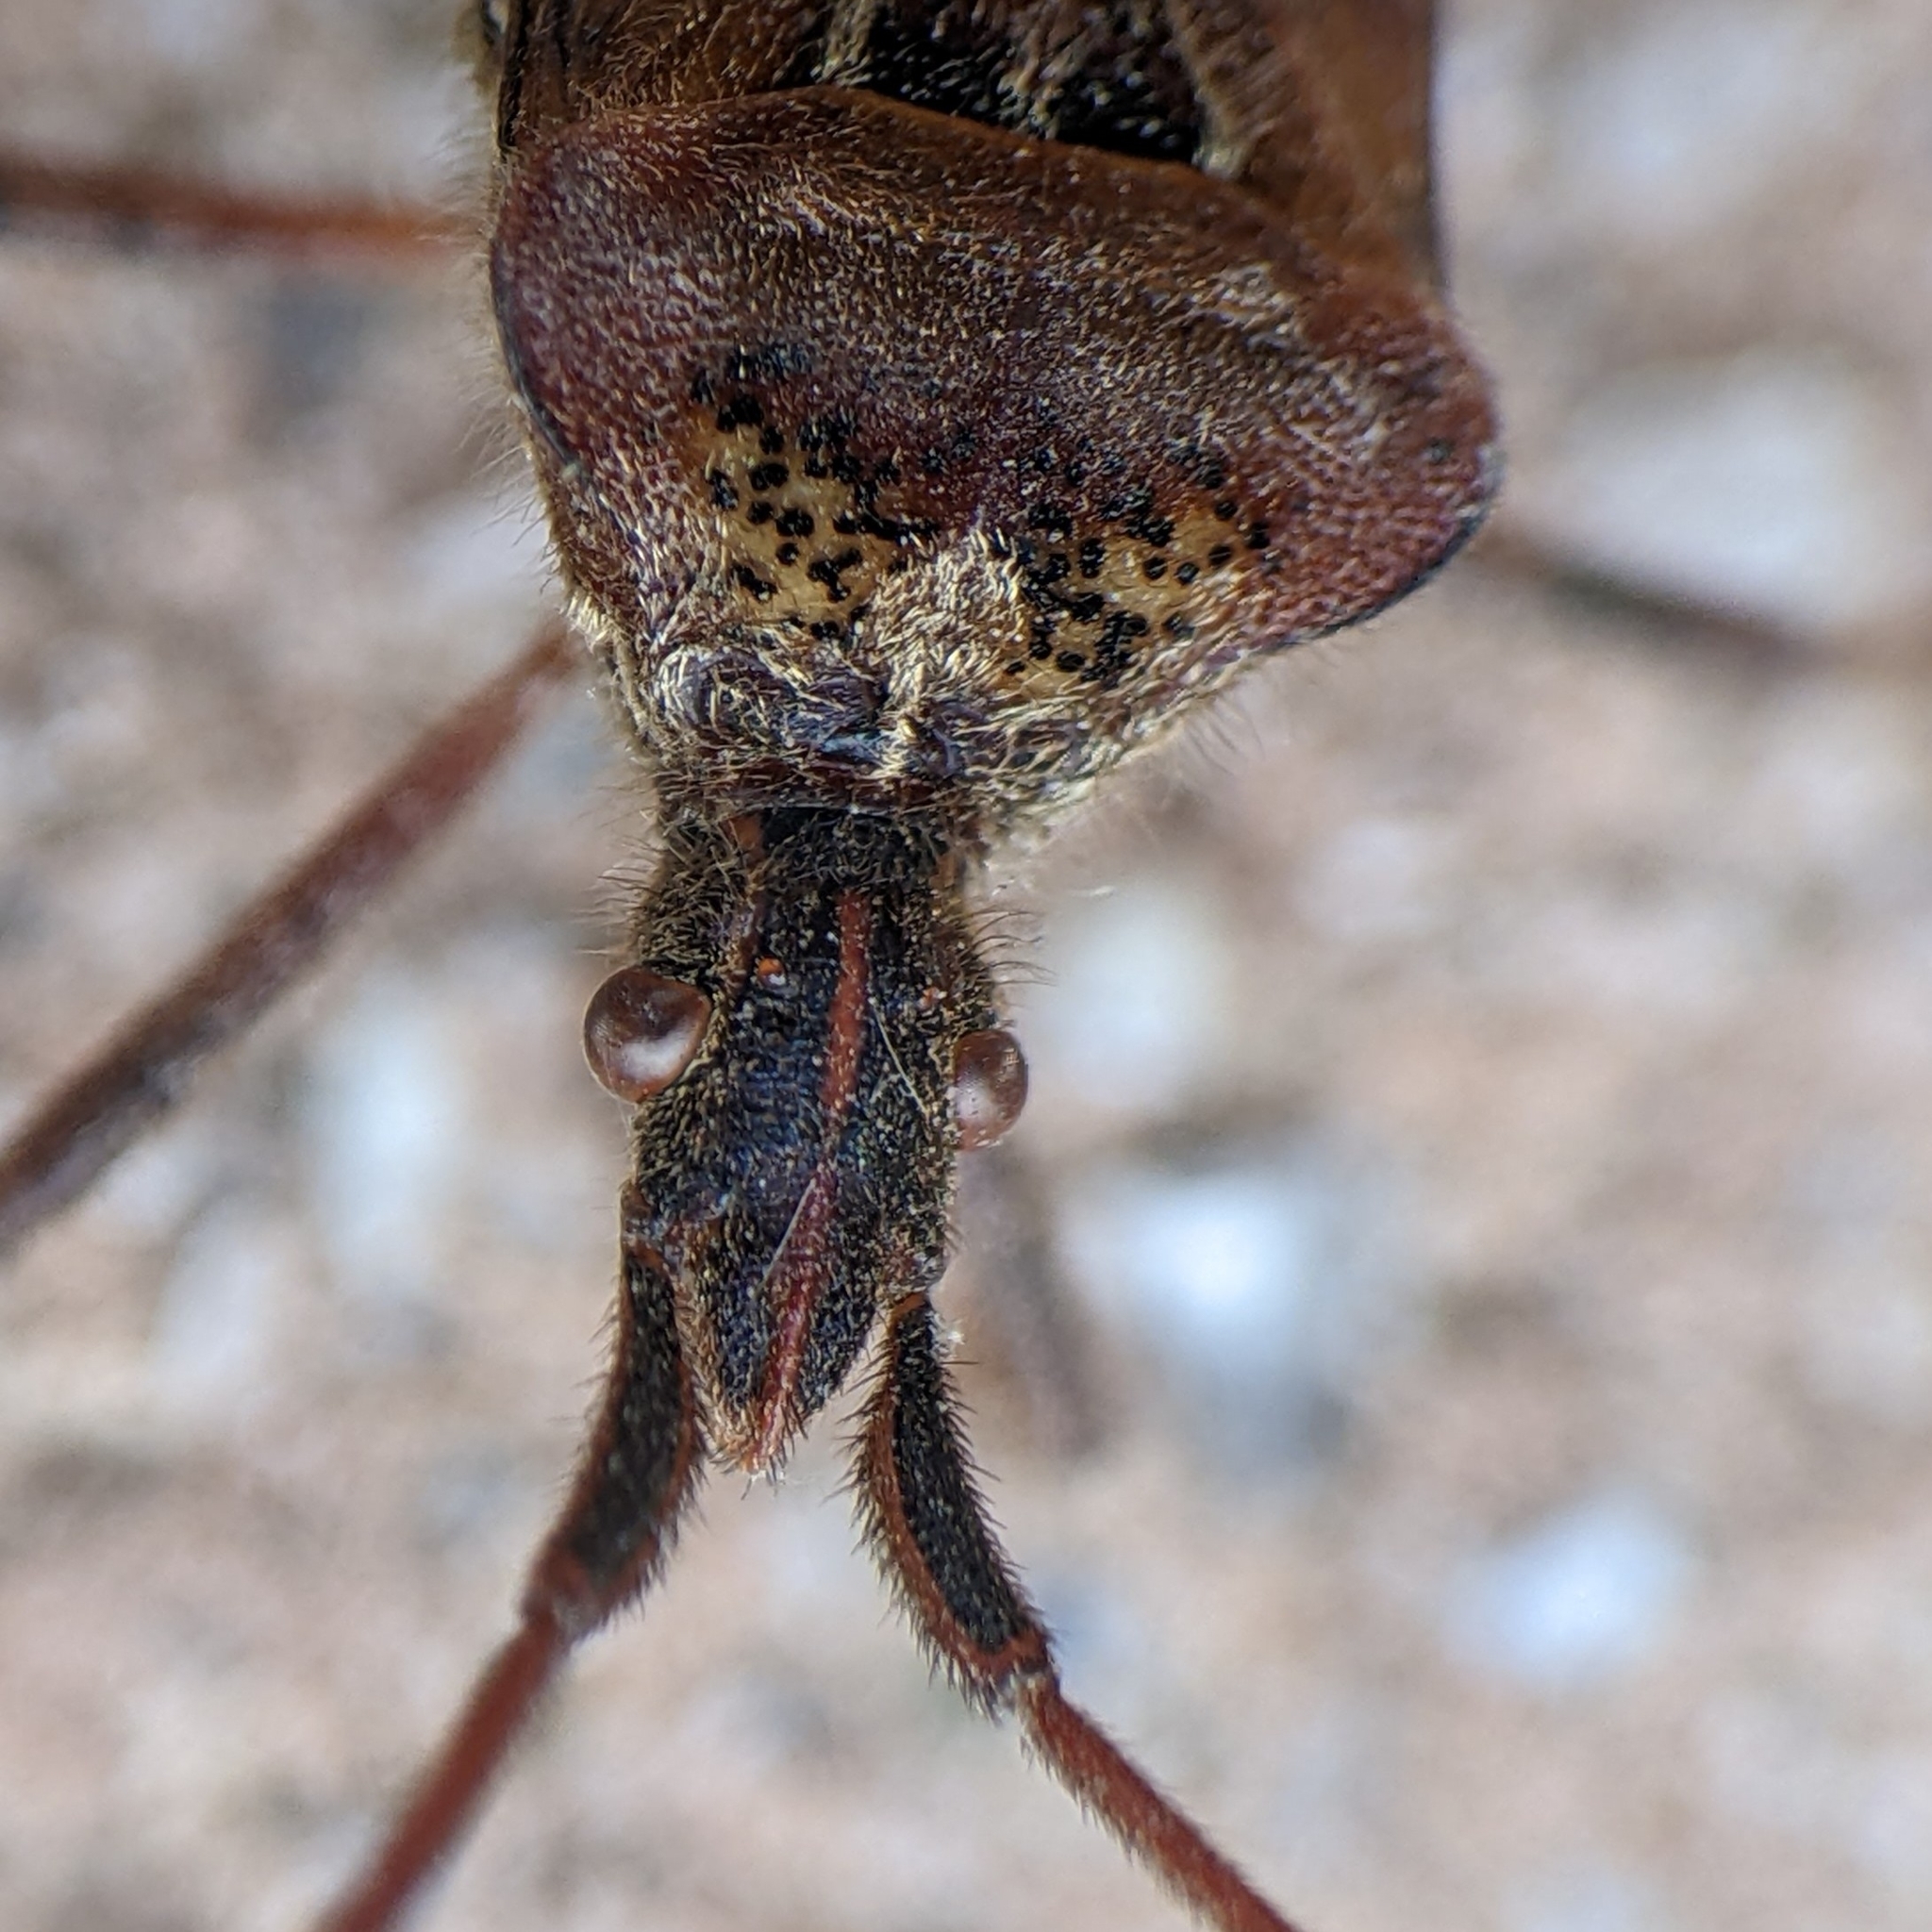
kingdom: Animalia
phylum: Arthropoda
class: Insecta
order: Hemiptera
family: Coreidae
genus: Leptoglossus
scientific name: Leptoglossus occidentalis
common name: Western conifer-seed bug
